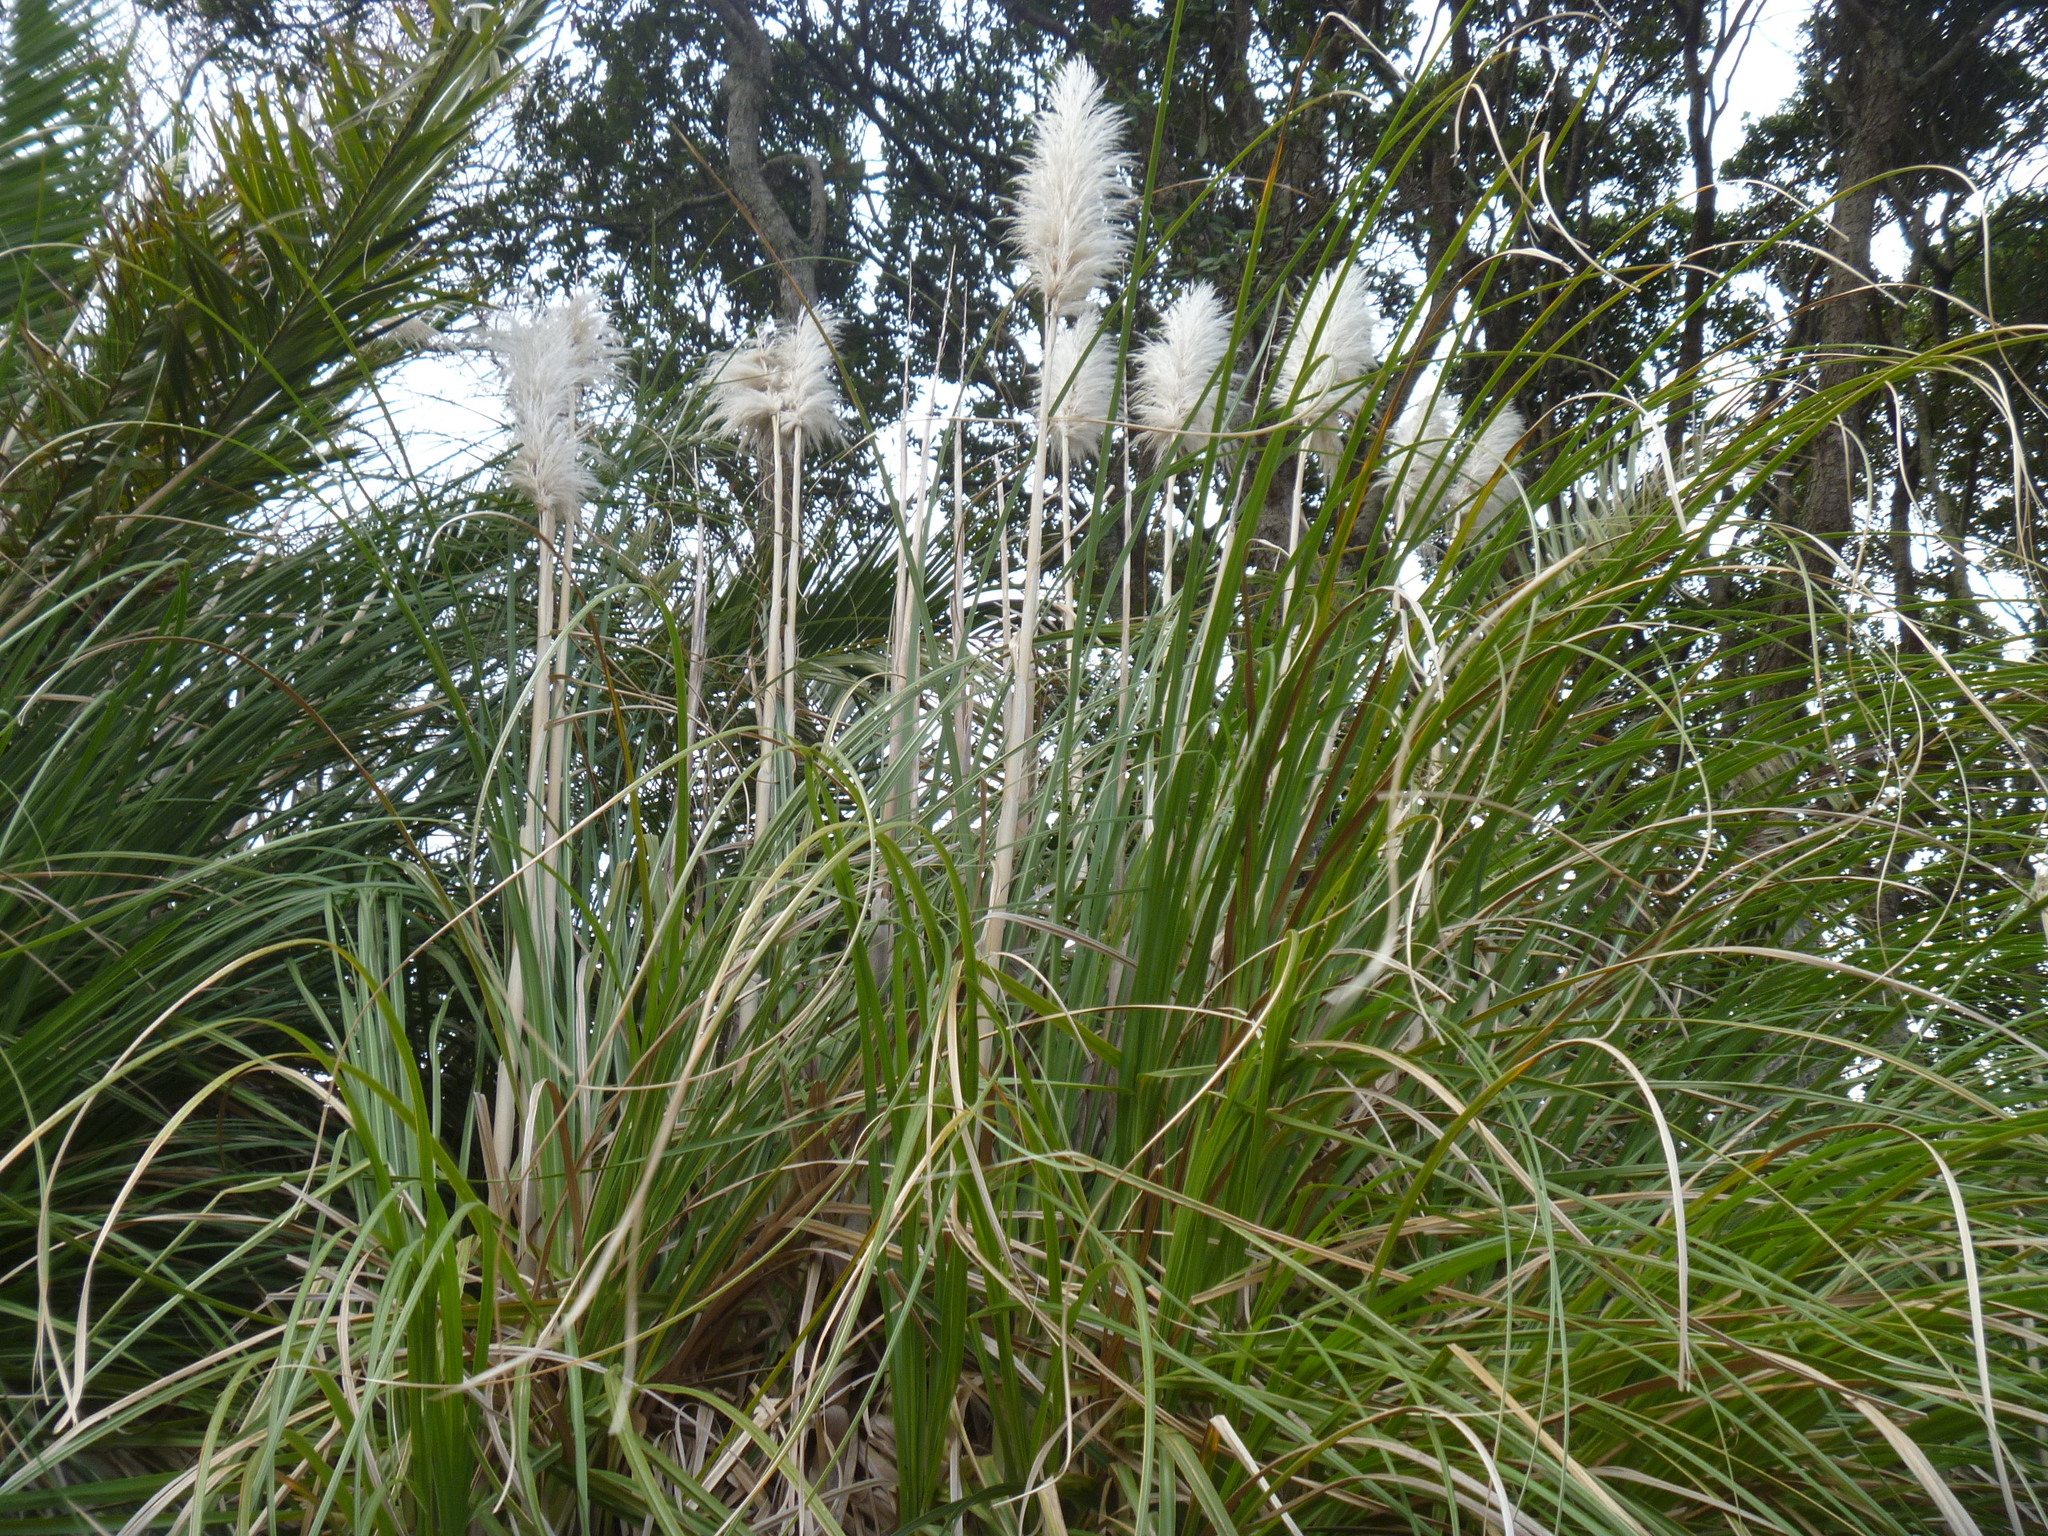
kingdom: Plantae
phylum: Tracheophyta
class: Liliopsida
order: Poales
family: Poaceae
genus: Cortaderia
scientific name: Cortaderia selloana
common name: Uruguayan pampas grass
